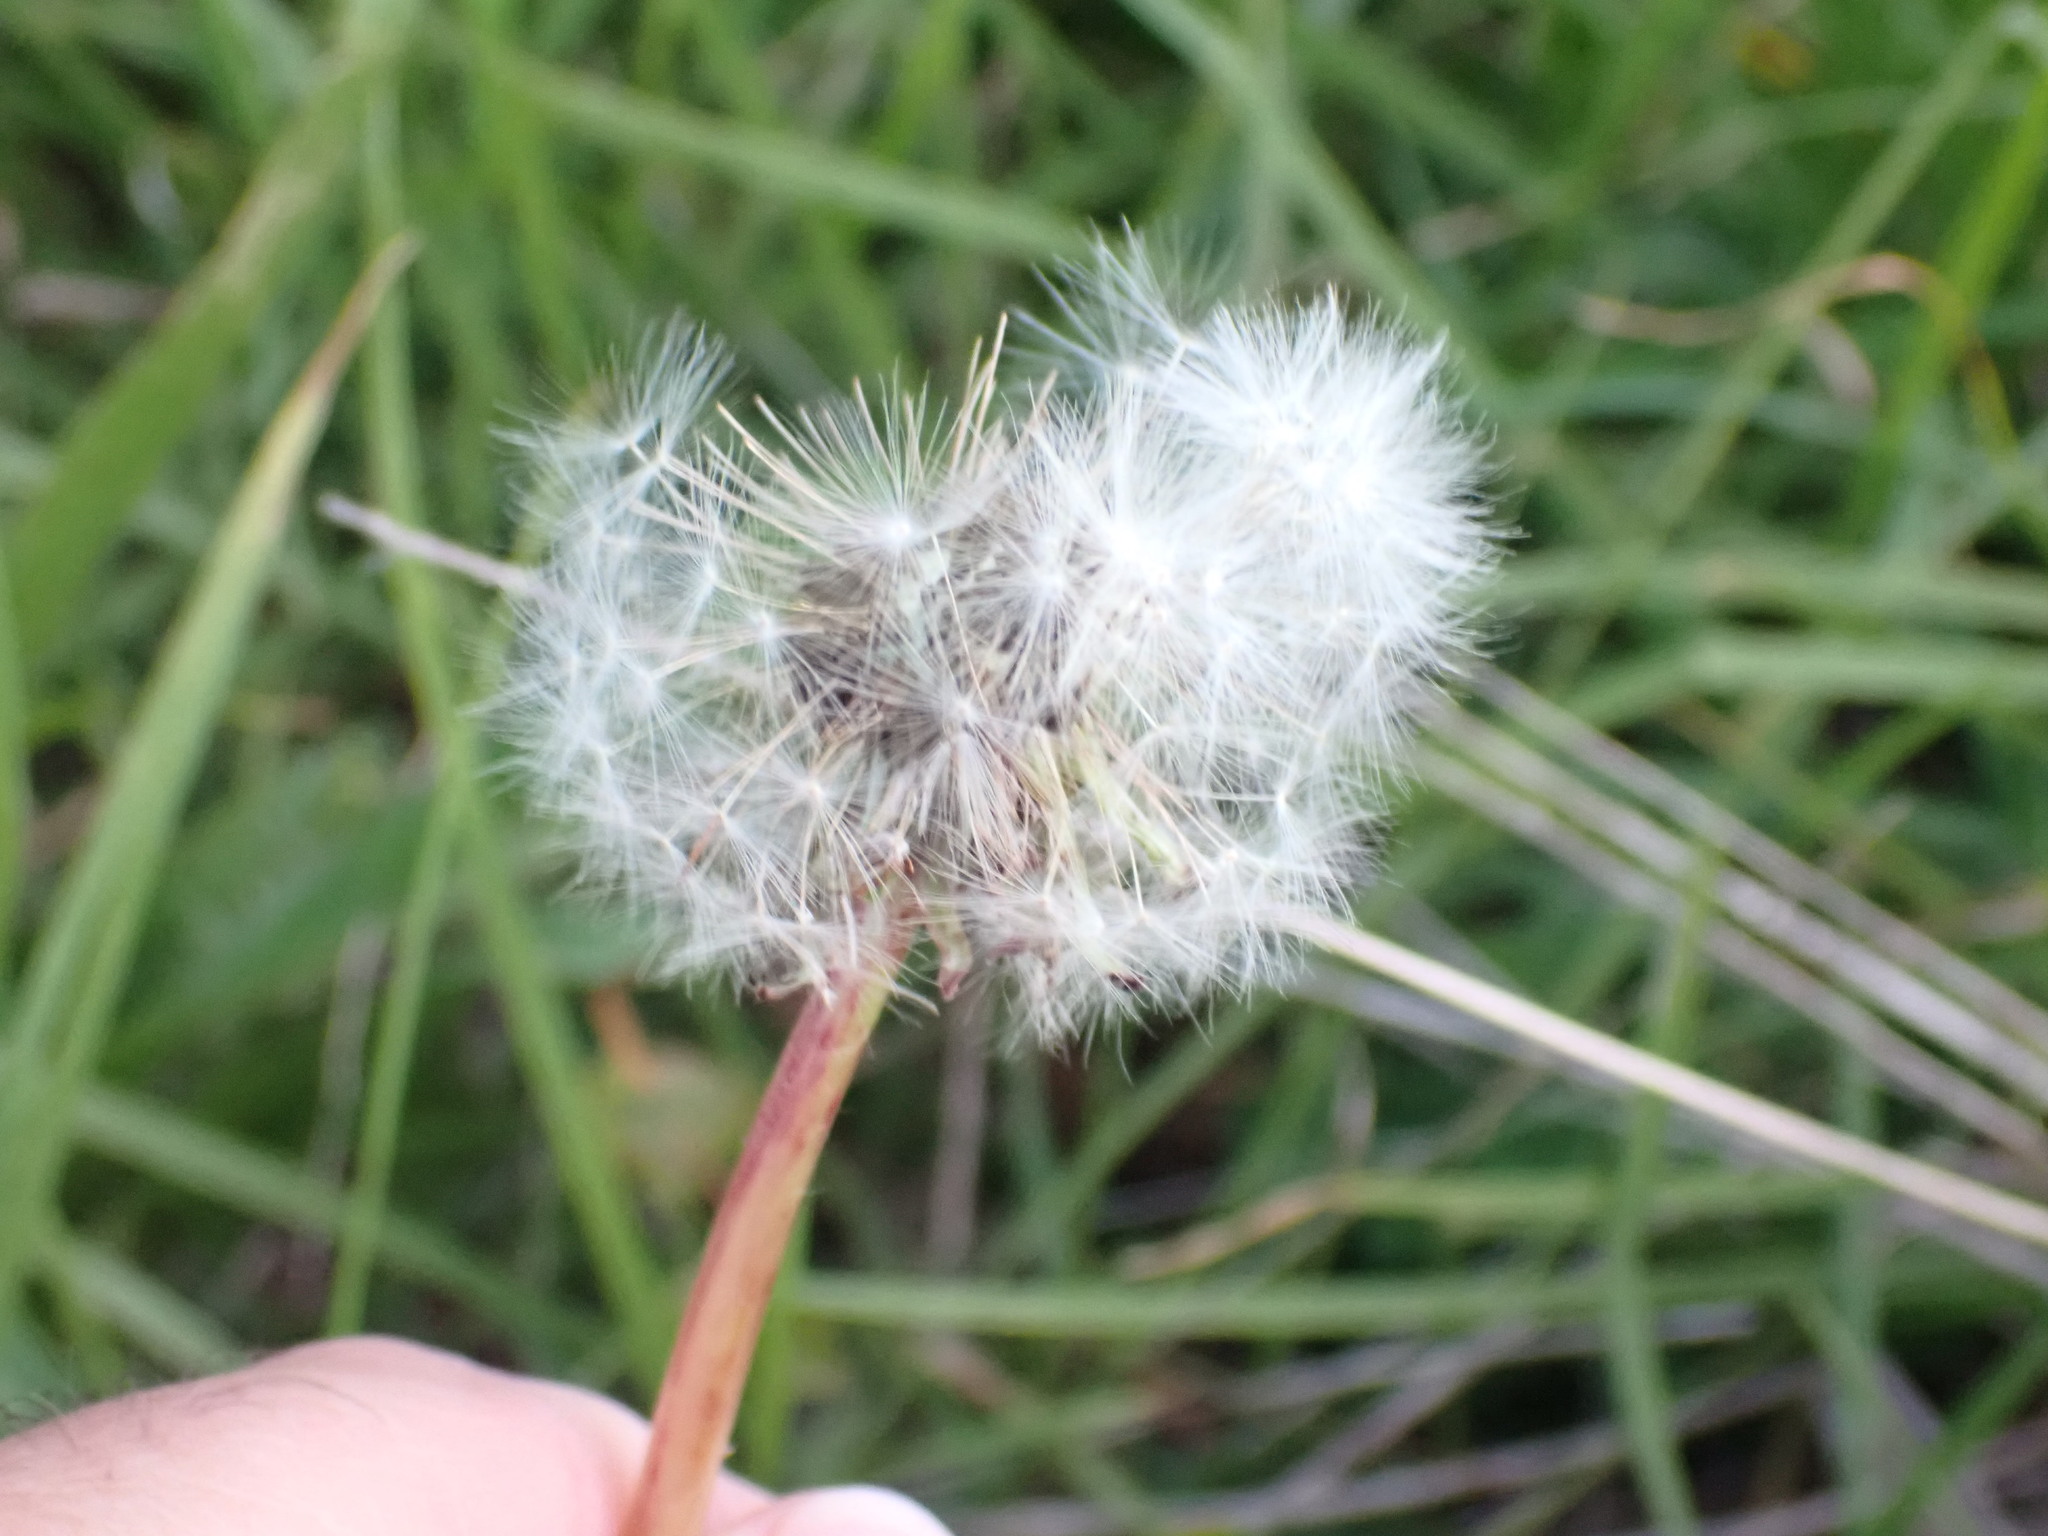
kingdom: Plantae
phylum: Tracheophyta
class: Magnoliopsida
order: Asterales
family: Asteraceae
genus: Taraxacum
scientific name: Taraxacum officinale
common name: Common dandelion
